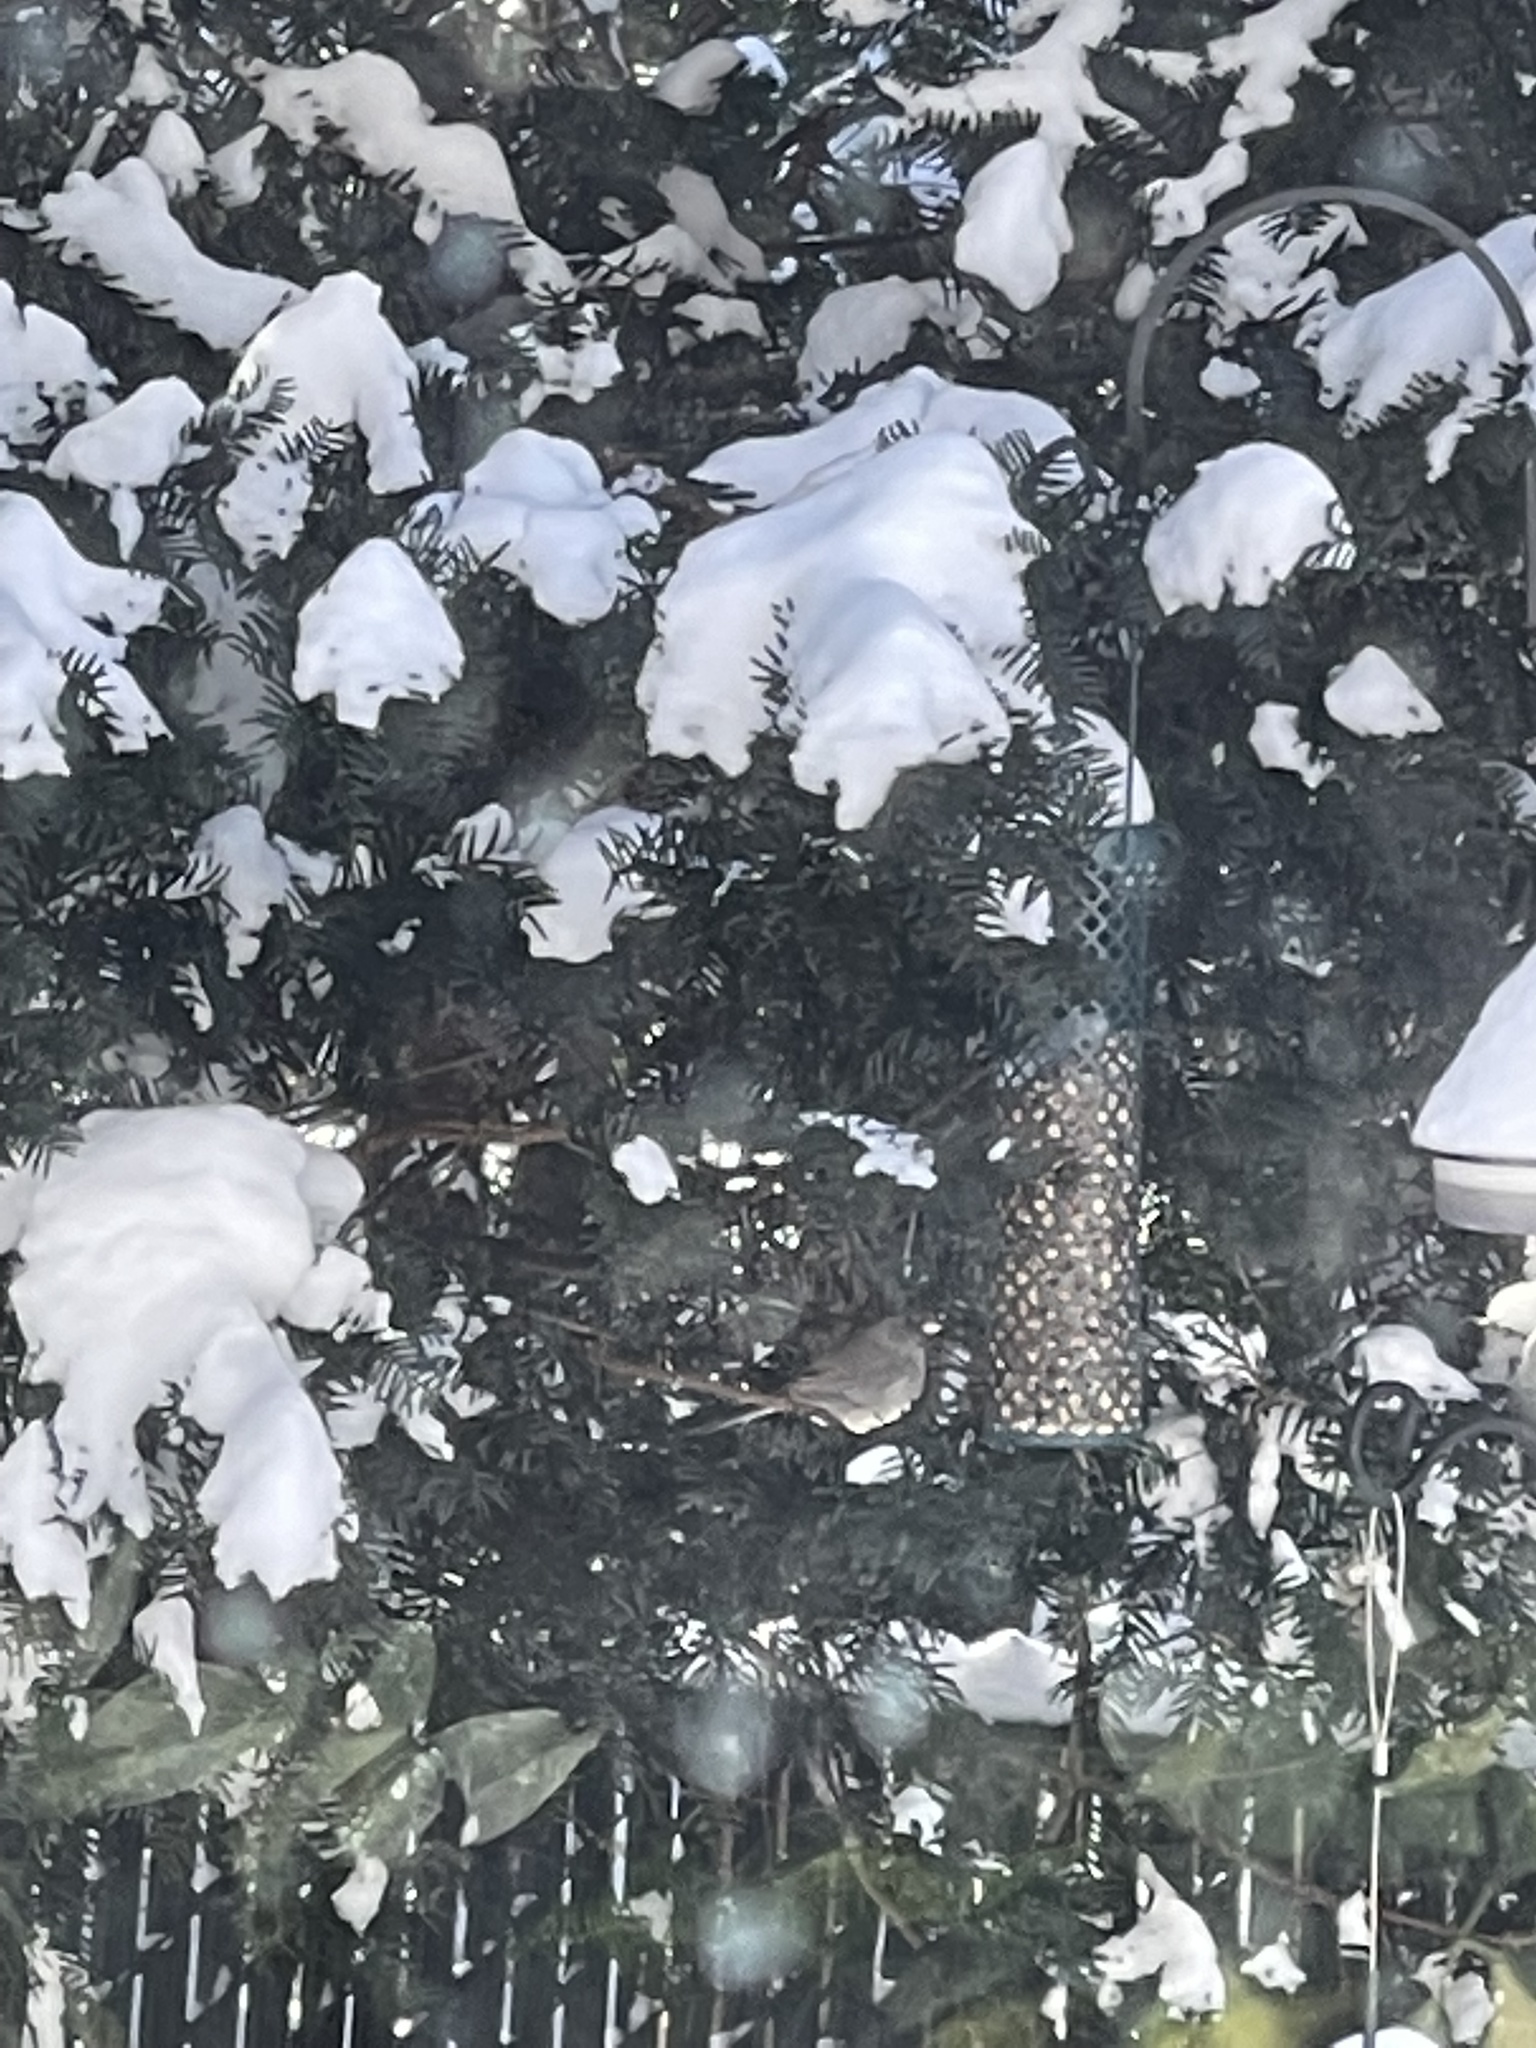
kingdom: Animalia
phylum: Chordata
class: Aves
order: Passeriformes
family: Passerellidae
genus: Junco
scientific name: Junco hyemalis
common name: Dark-eyed junco
